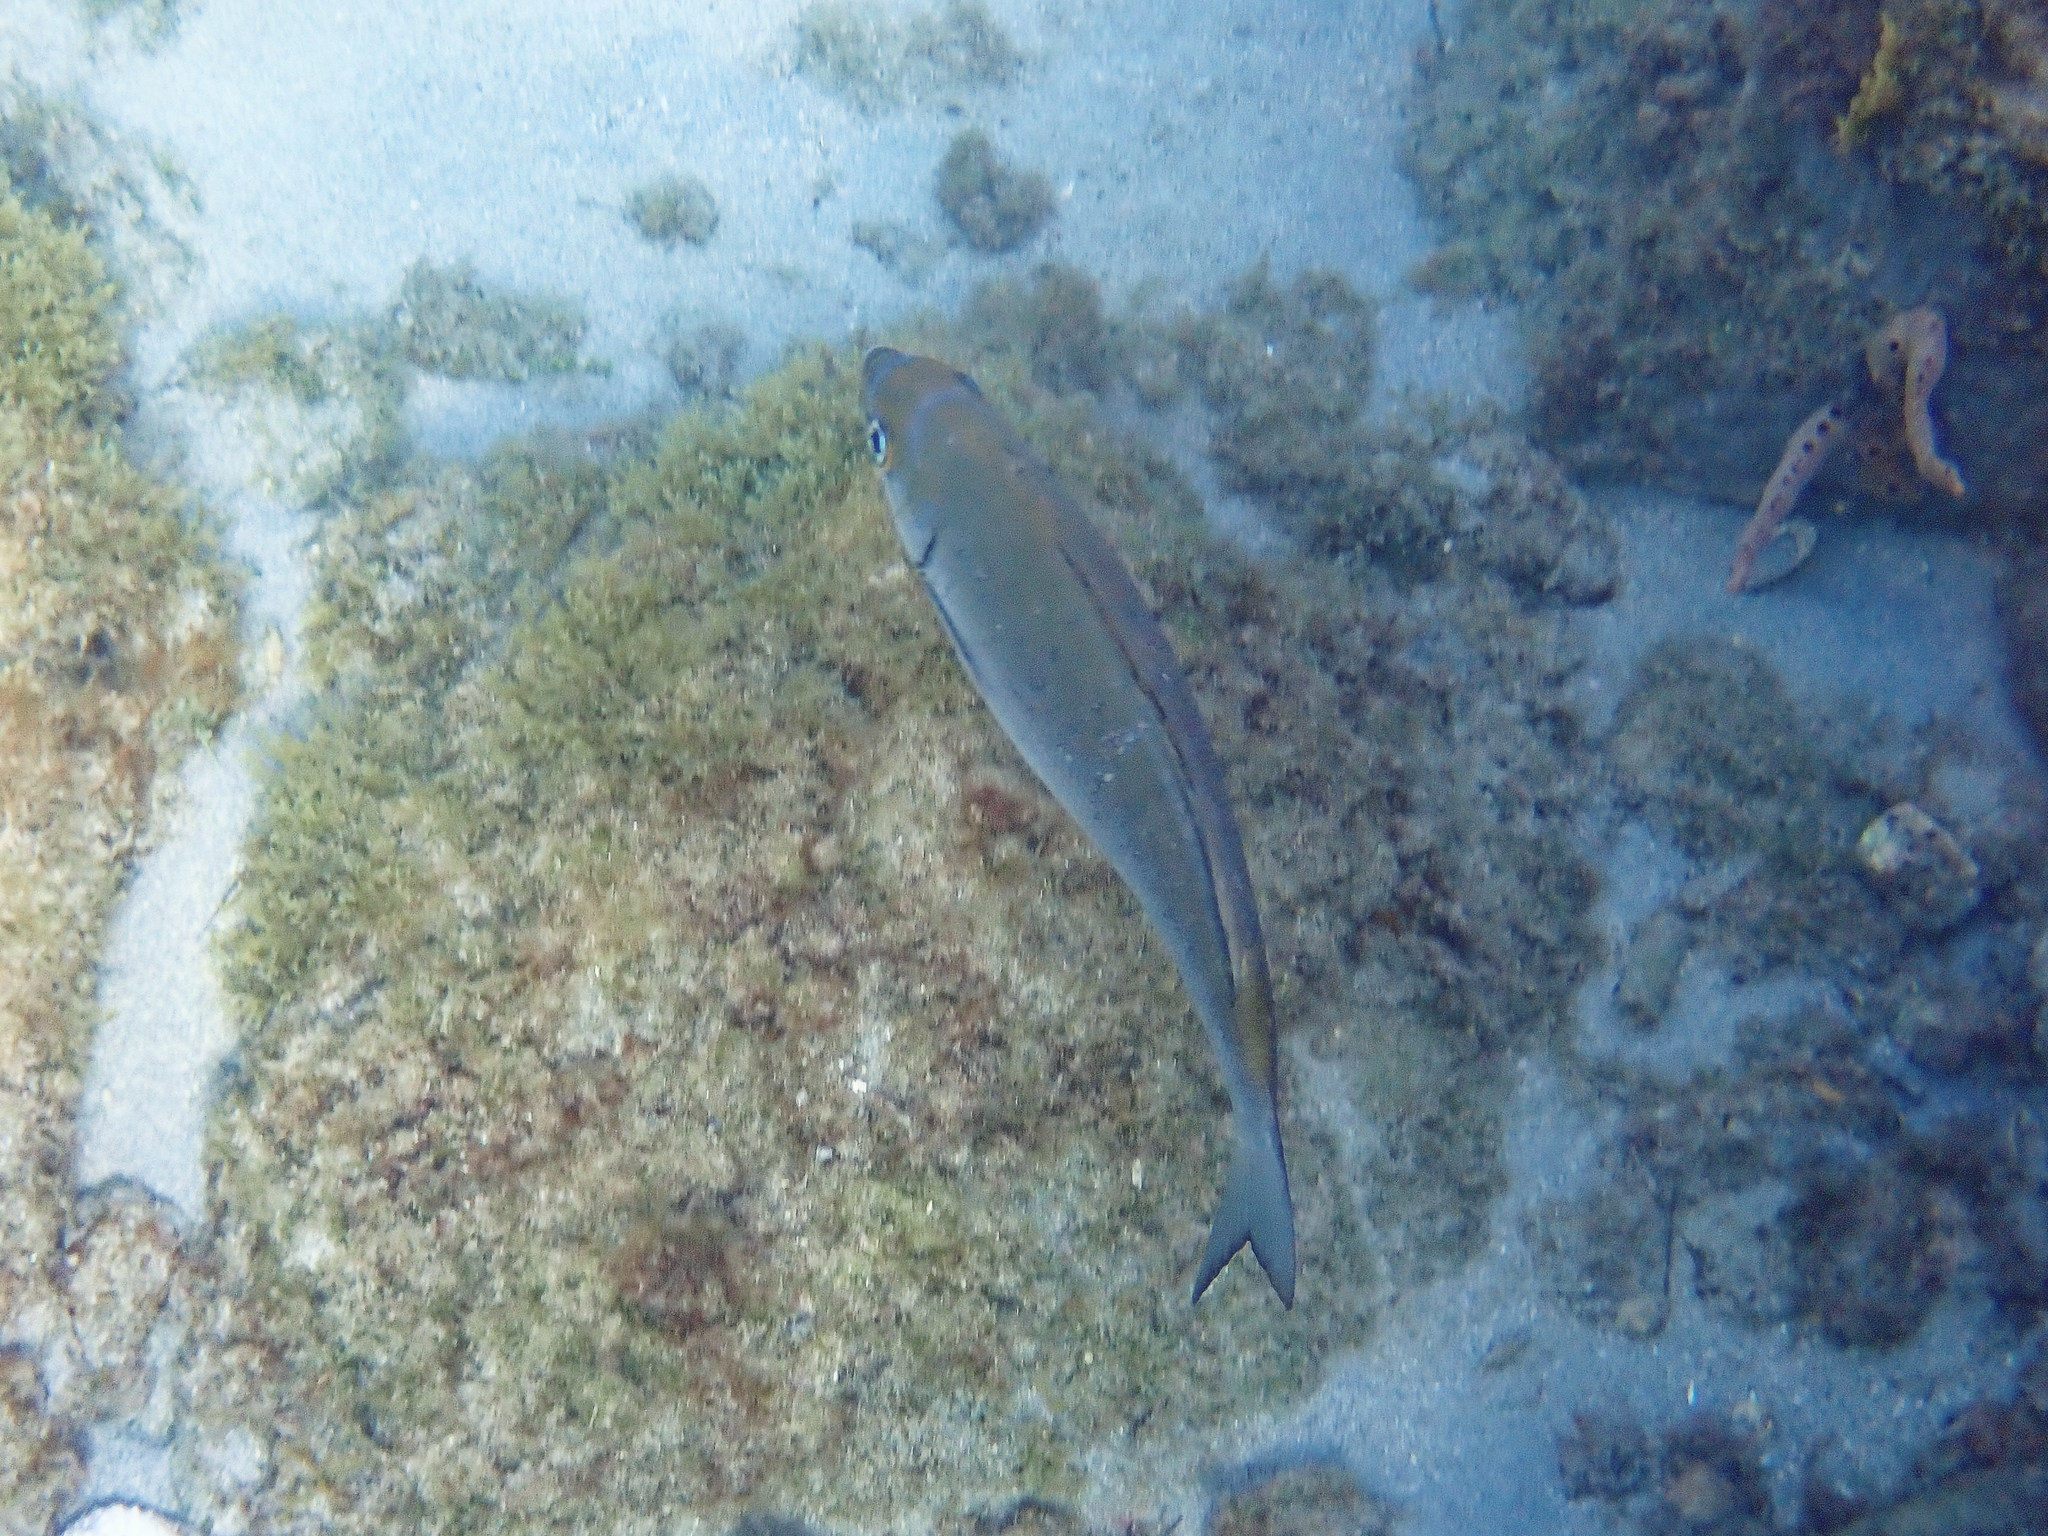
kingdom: Animalia
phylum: Chordata
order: Perciformes
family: Kyphosidae
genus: Kyphosus
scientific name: Kyphosus sectatrix
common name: Bermuda chub
